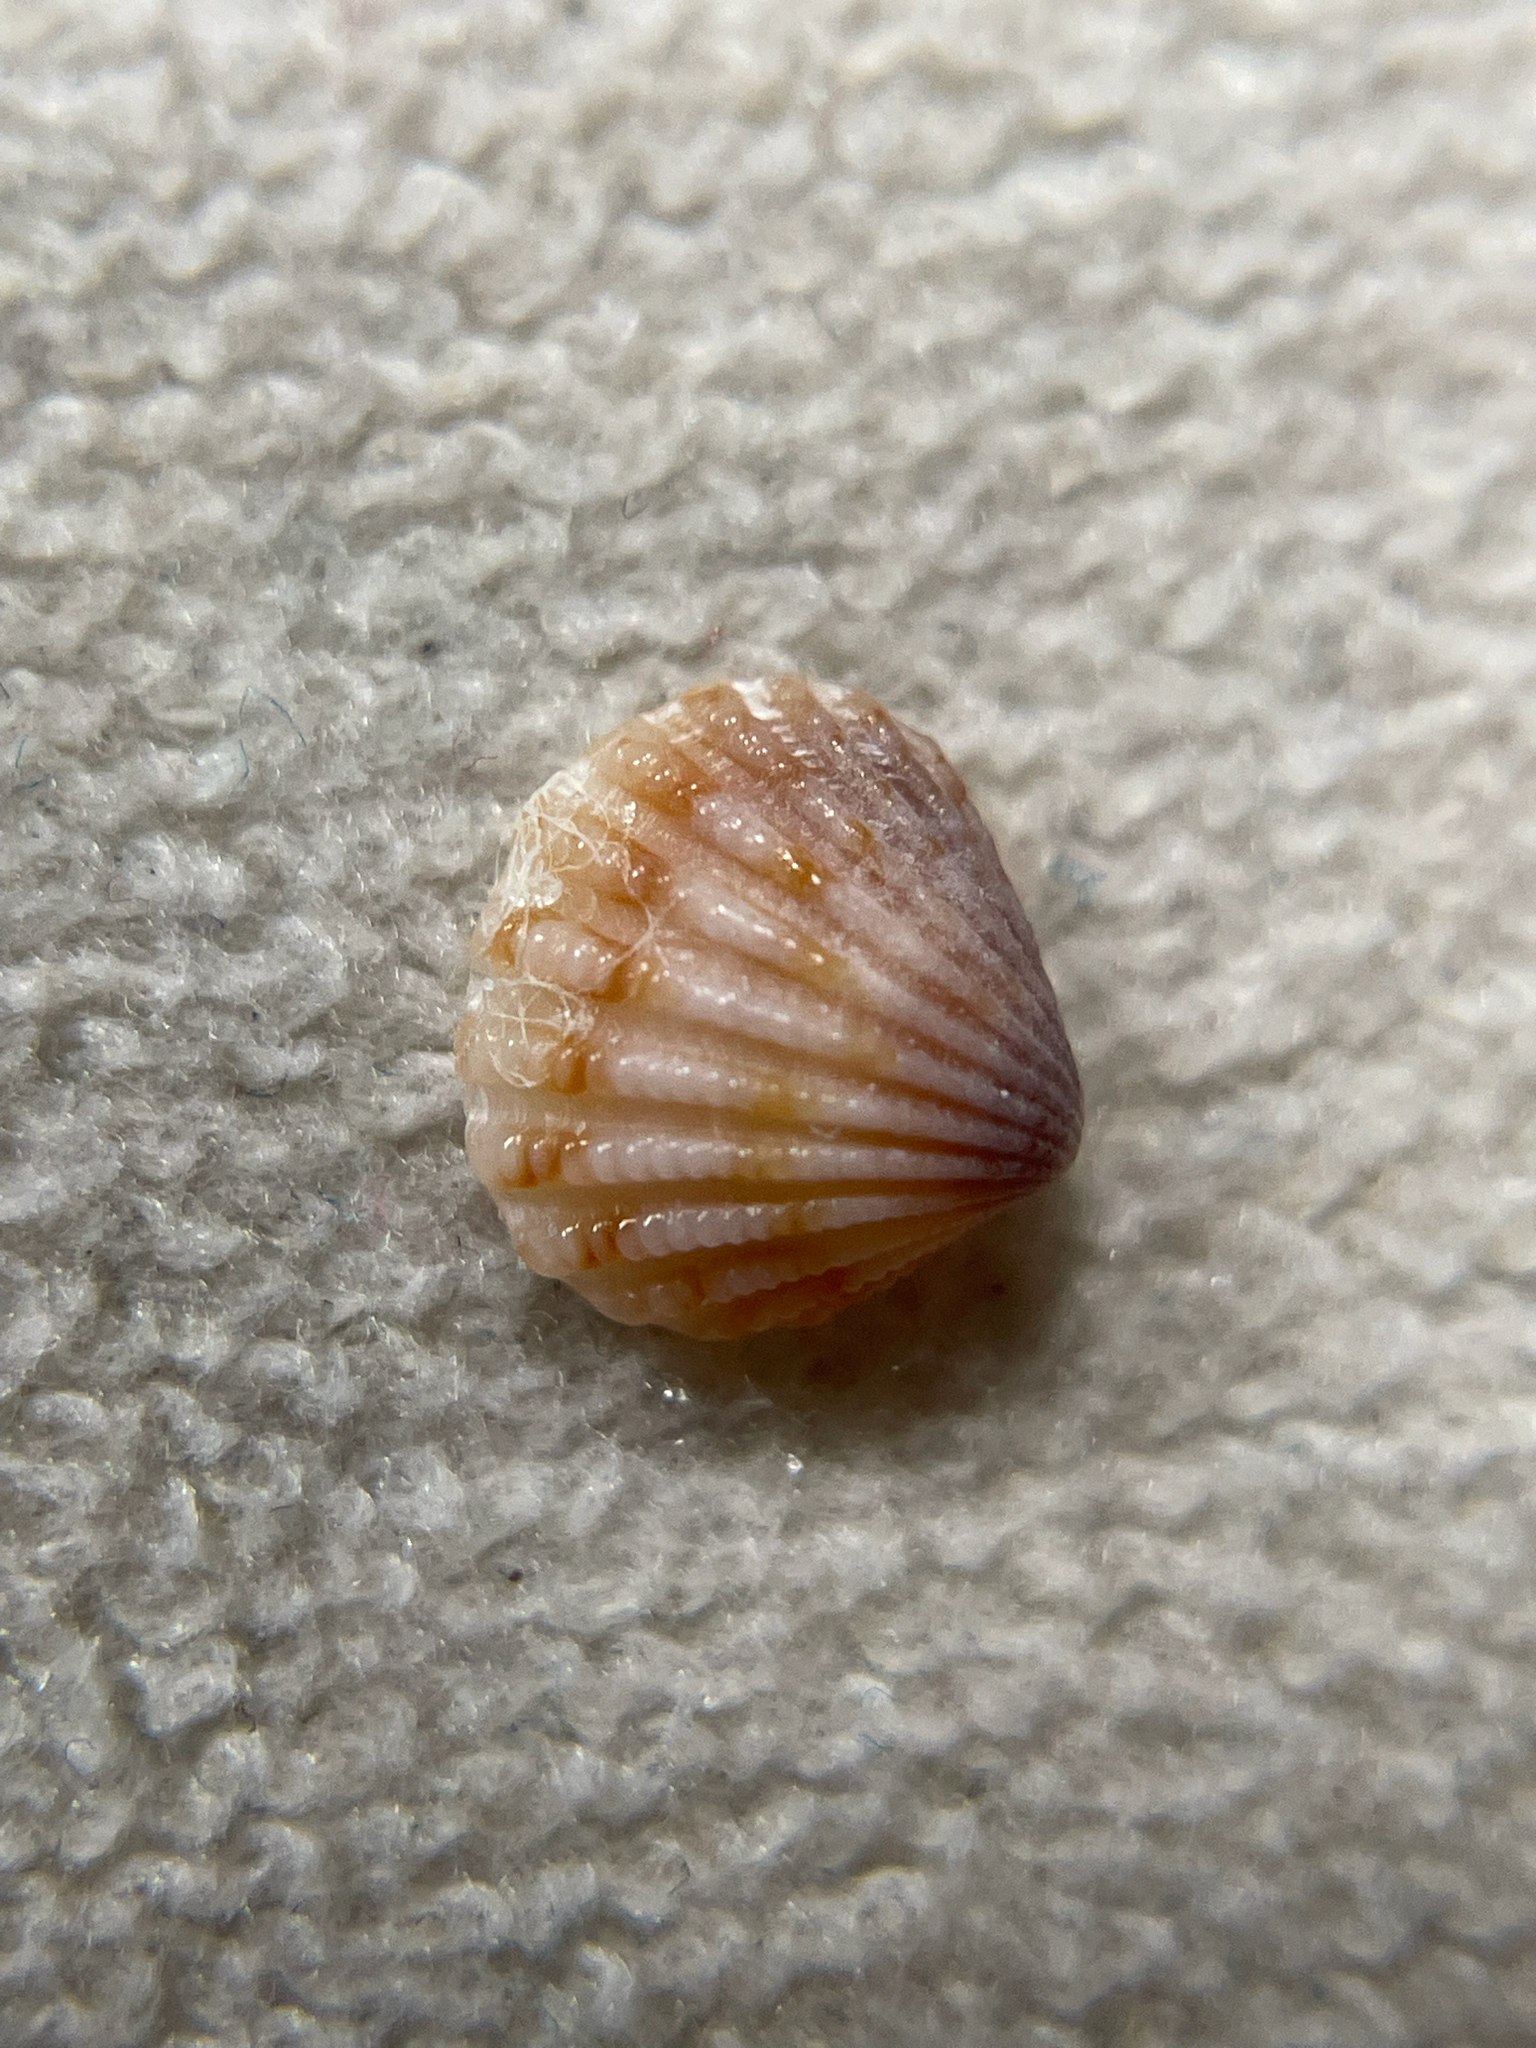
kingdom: Animalia
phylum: Mollusca
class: Bivalvia
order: Carditida
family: Carditidae
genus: Pleuromeris
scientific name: Pleuromeris tridentata
